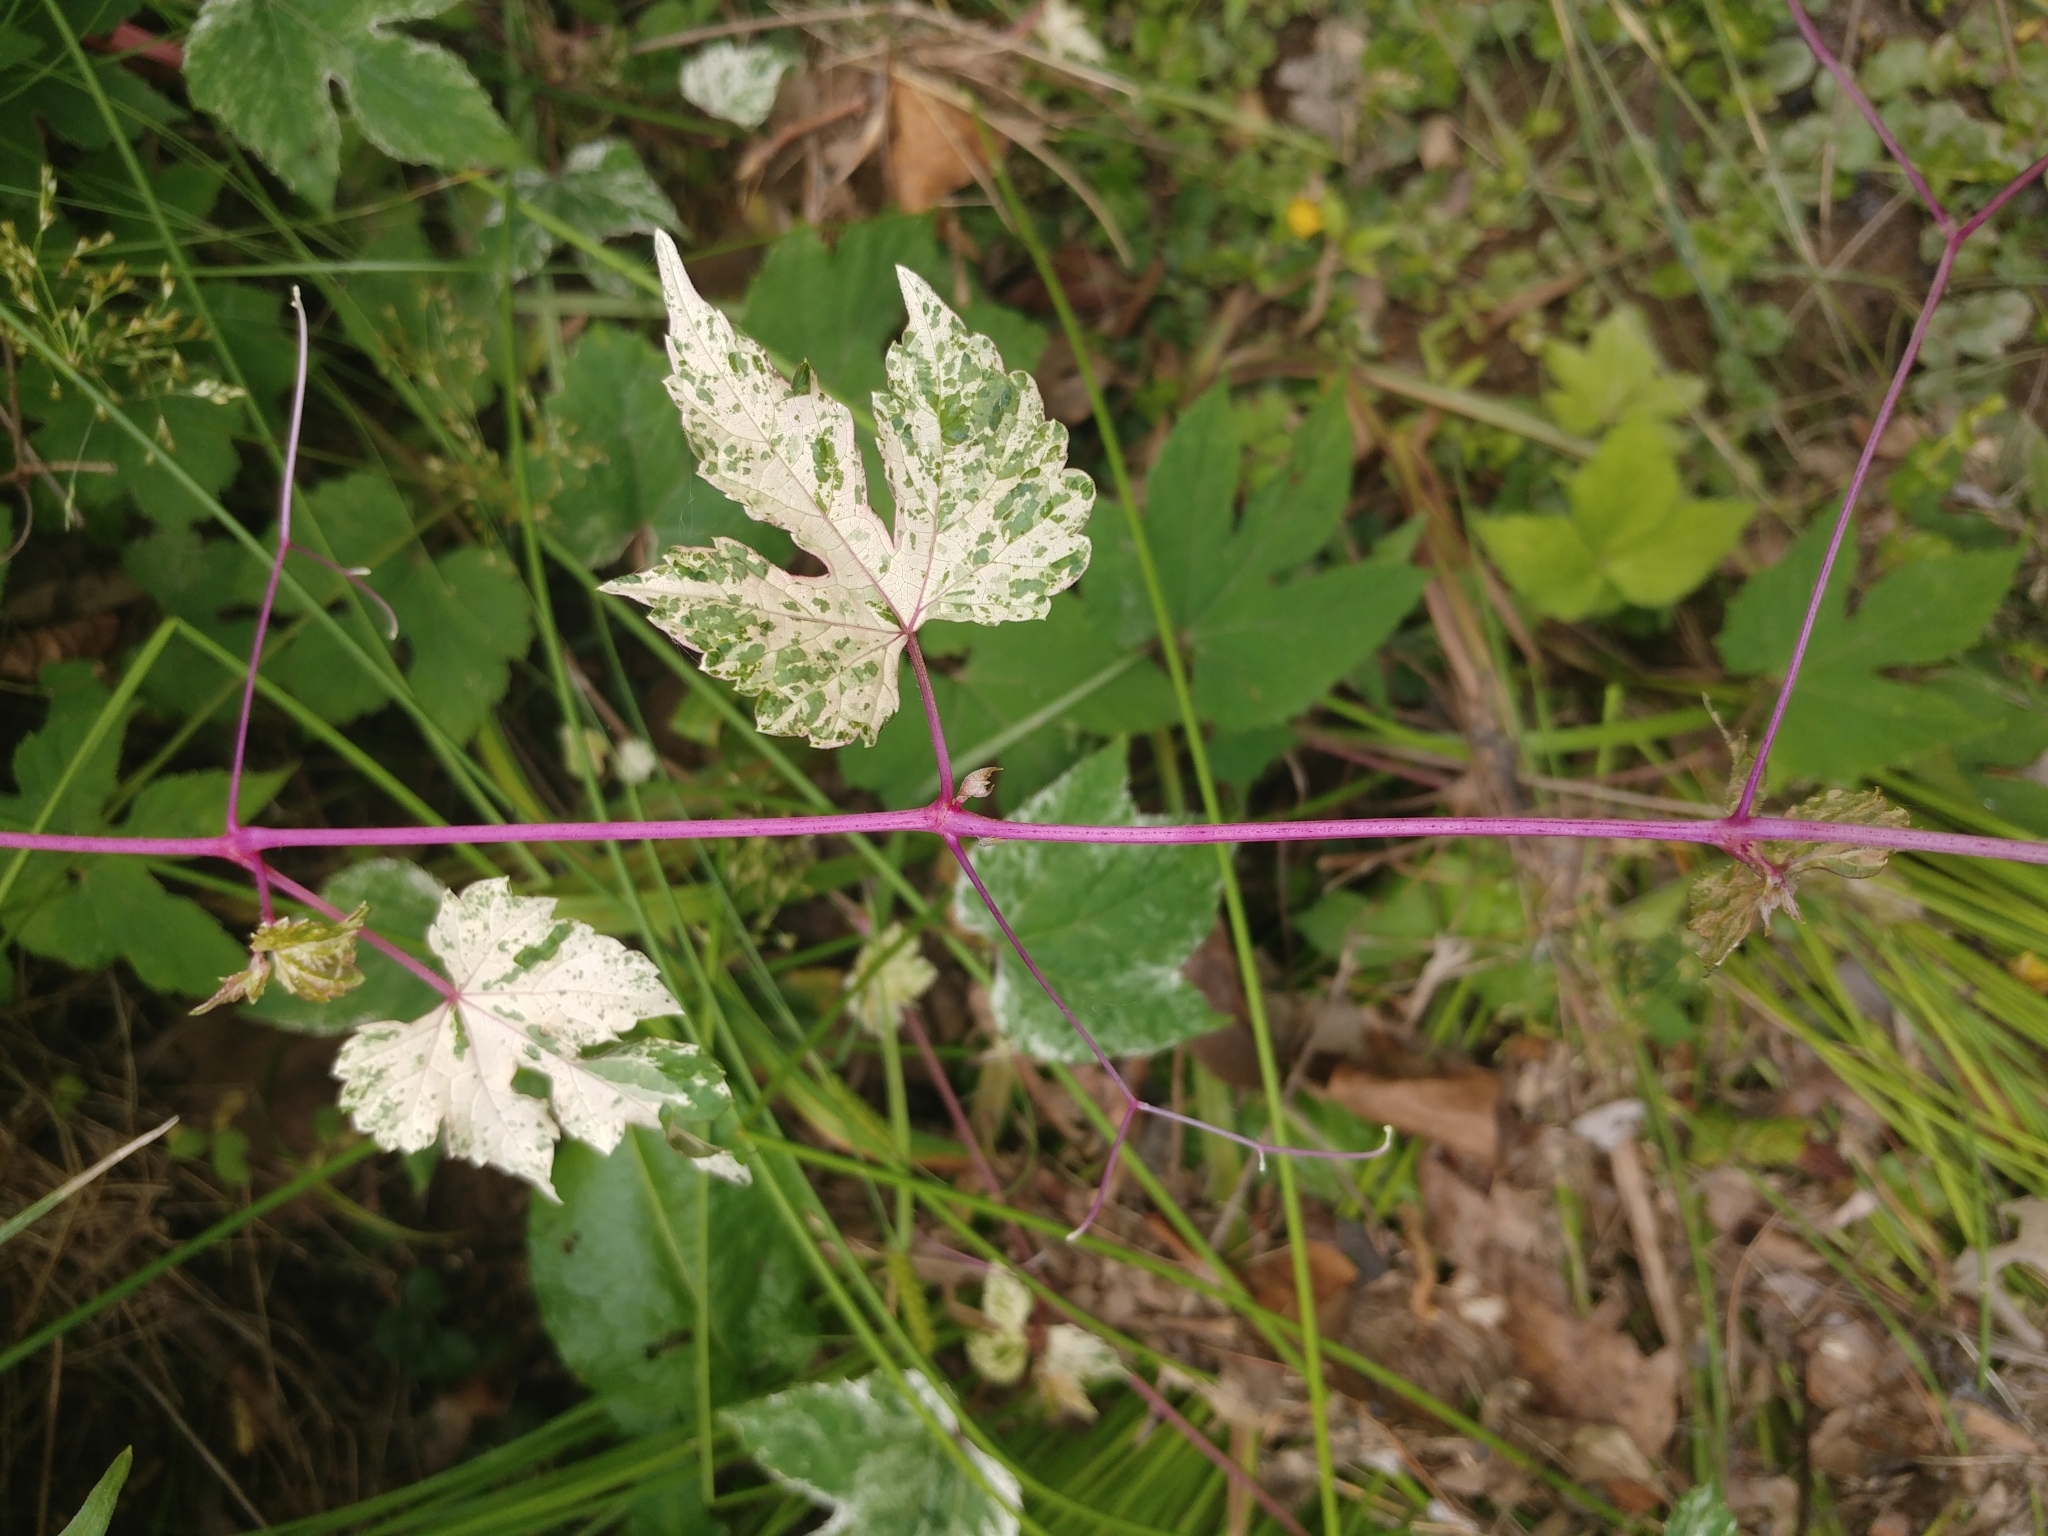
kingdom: Plantae
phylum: Tracheophyta
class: Magnoliopsida
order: Vitales
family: Vitaceae
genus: Ampelopsis
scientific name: Ampelopsis glandulosa
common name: Amur peppervine
